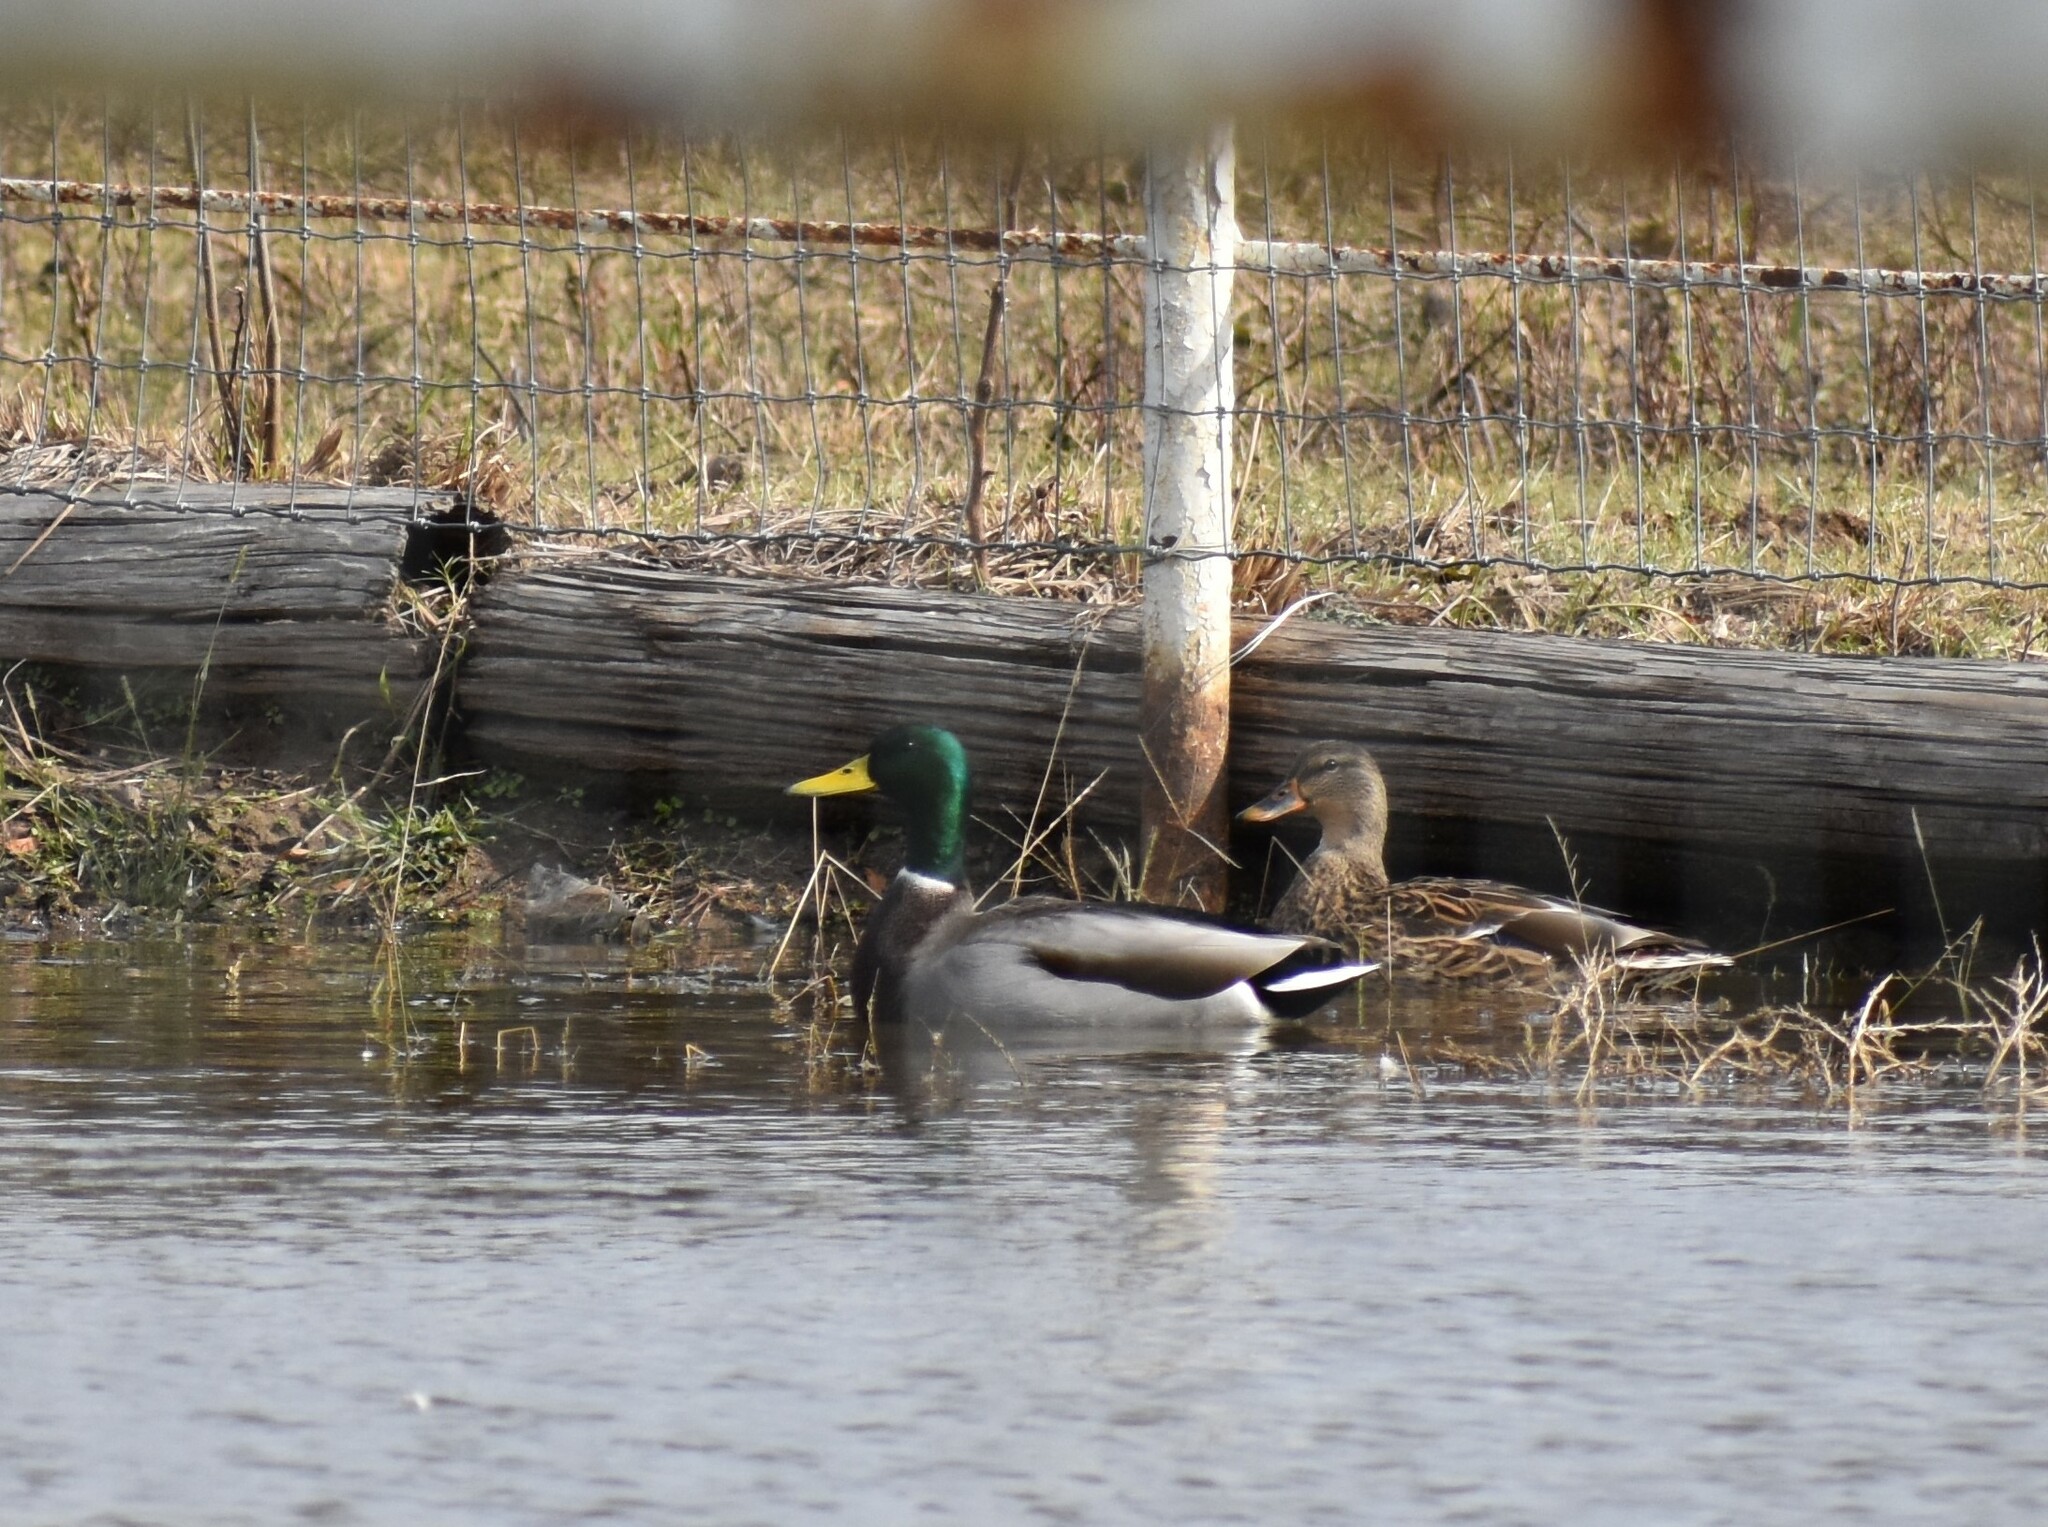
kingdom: Animalia
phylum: Chordata
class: Aves
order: Anseriformes
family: Anatidae
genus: Anas
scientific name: Anas platyrhynchos
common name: Mallard
